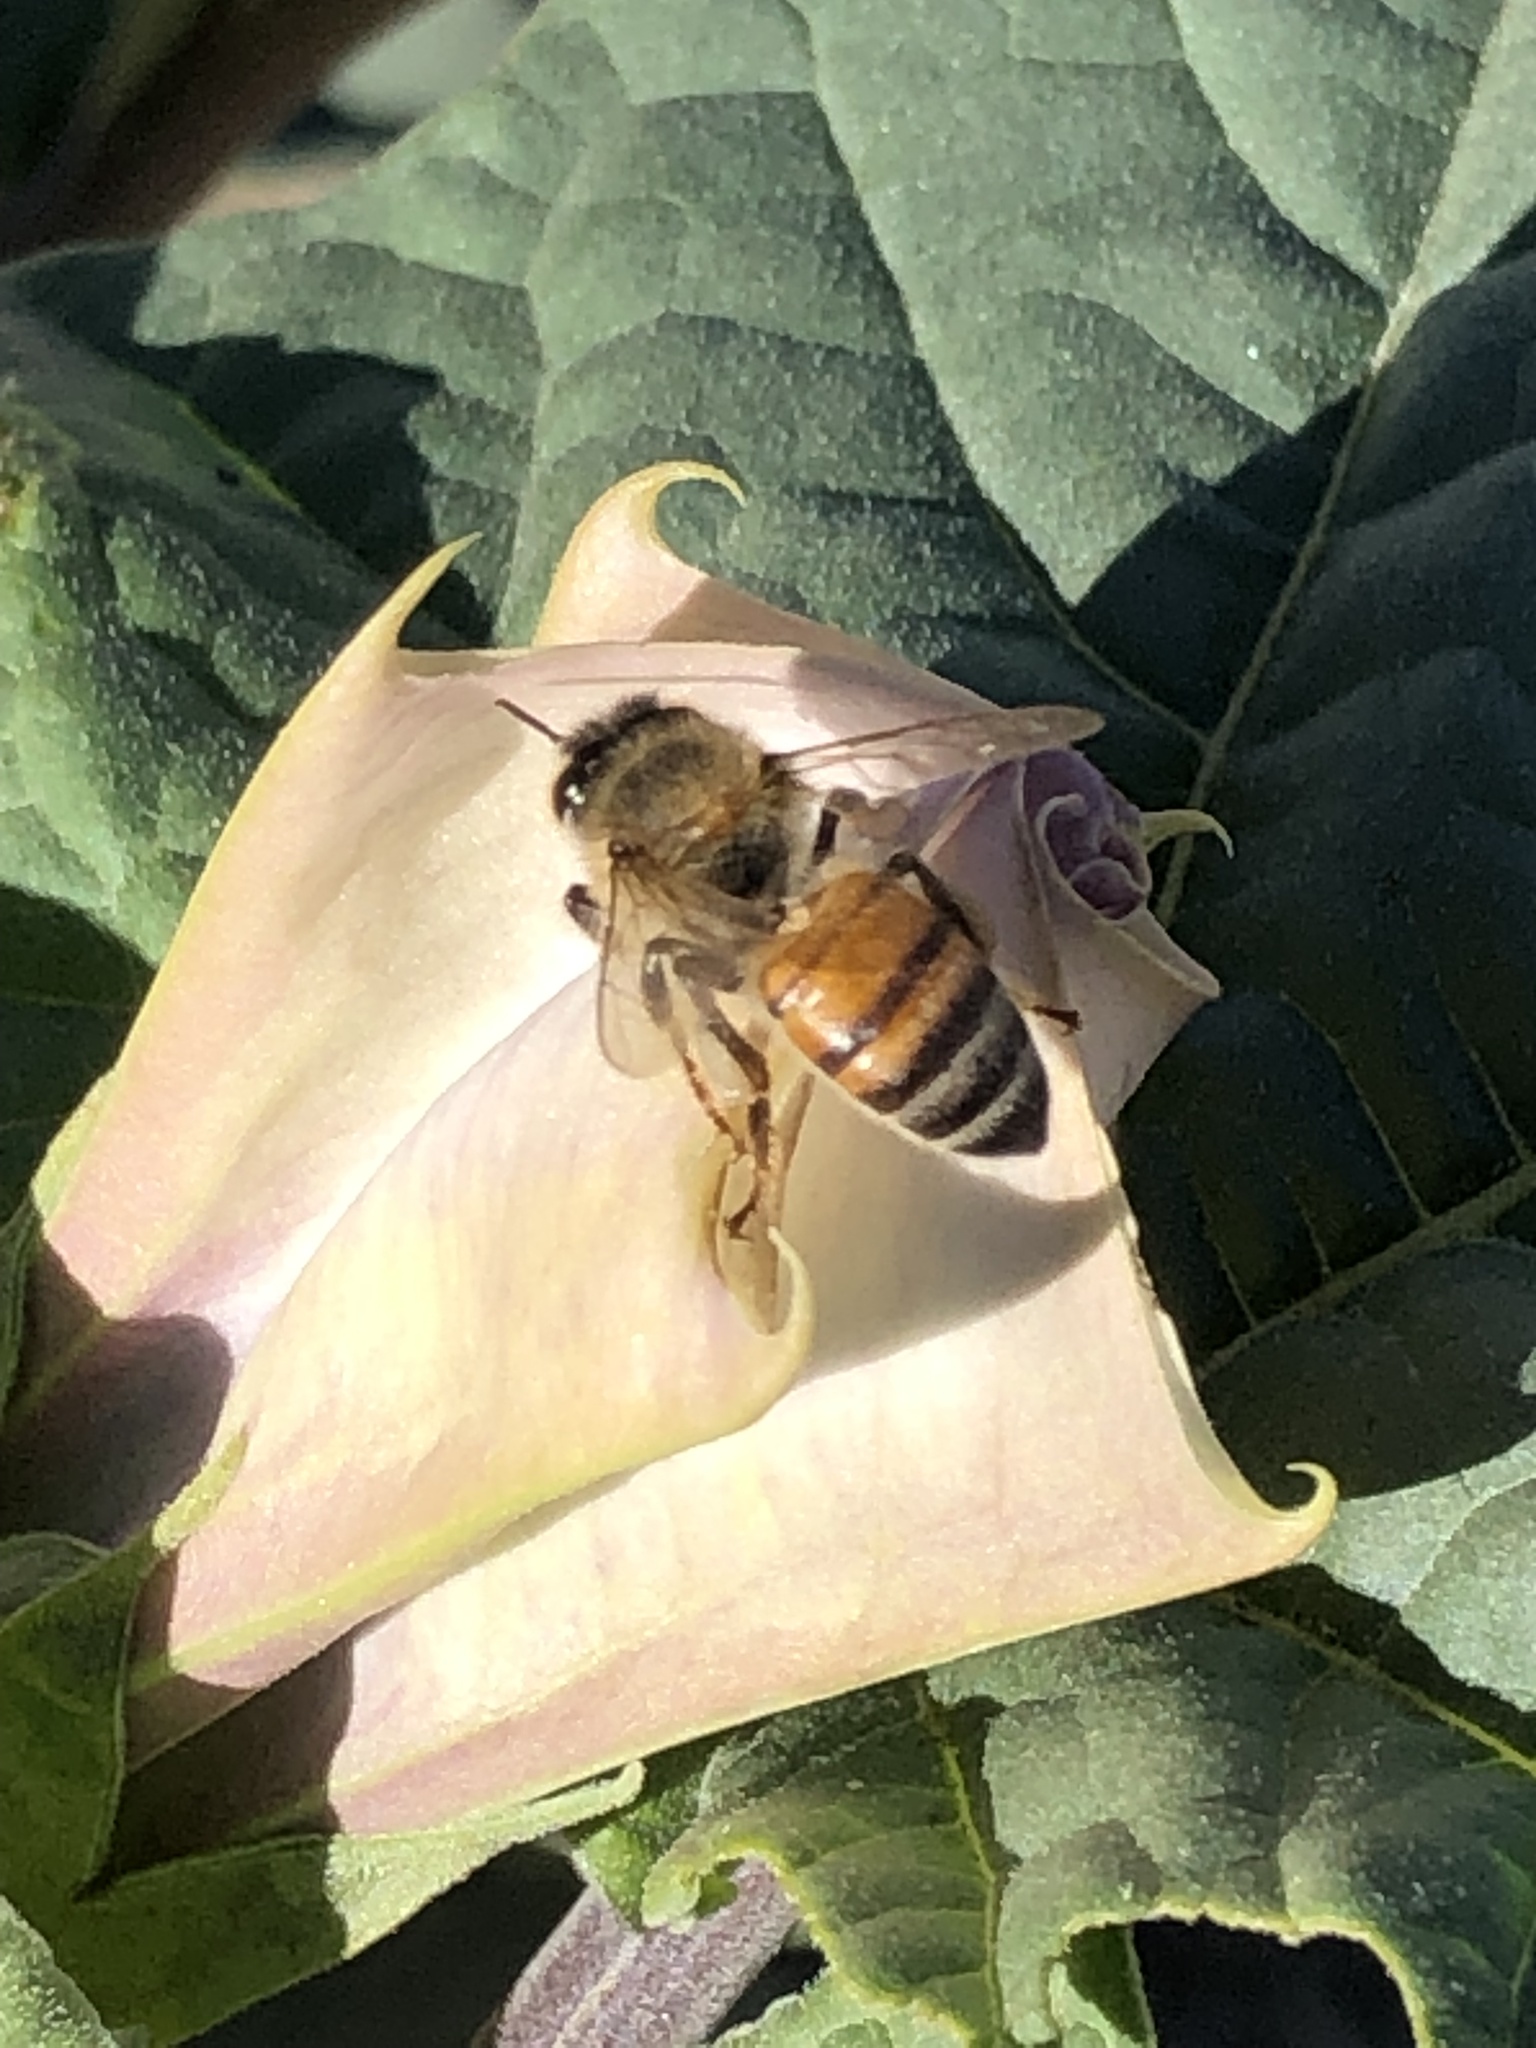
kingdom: Animalia
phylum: Arthropoda
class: Insecta
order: Hymenoptera
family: Apidae
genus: Apis
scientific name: Apis mellifera
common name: Honey bee
